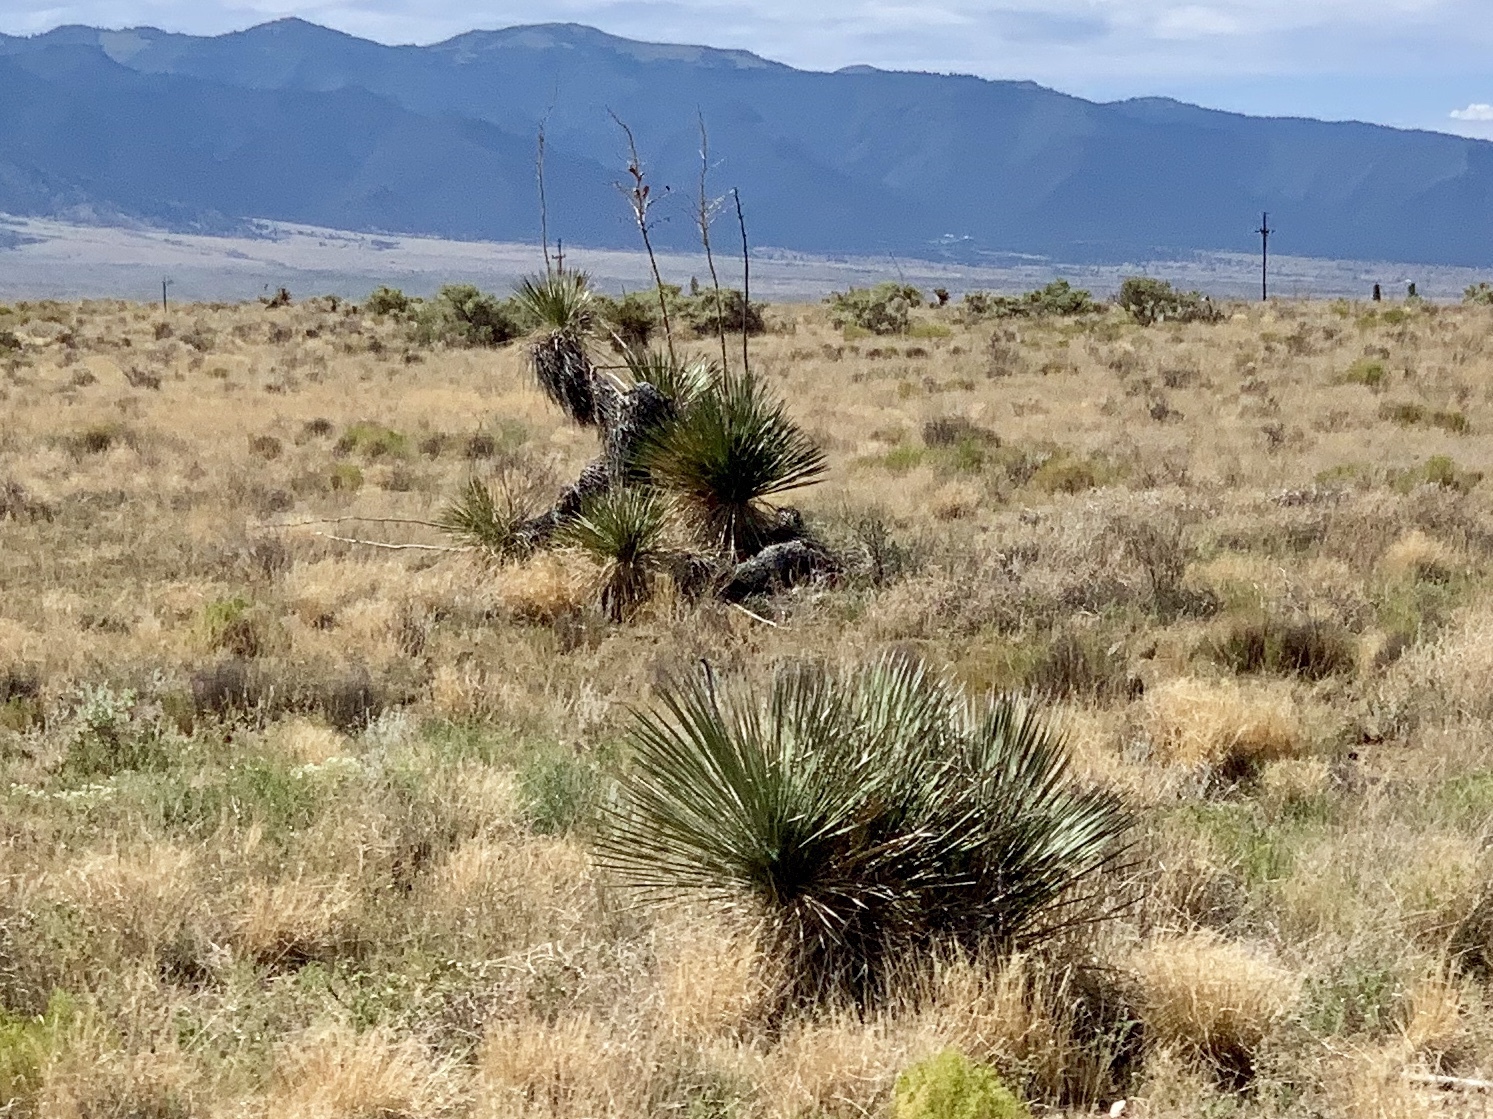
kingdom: Plantae
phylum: Tracheophyta
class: Liliopsida
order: Asparagales
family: Asparagaceae
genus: Yucca
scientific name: Yucca elata
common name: Palmella
